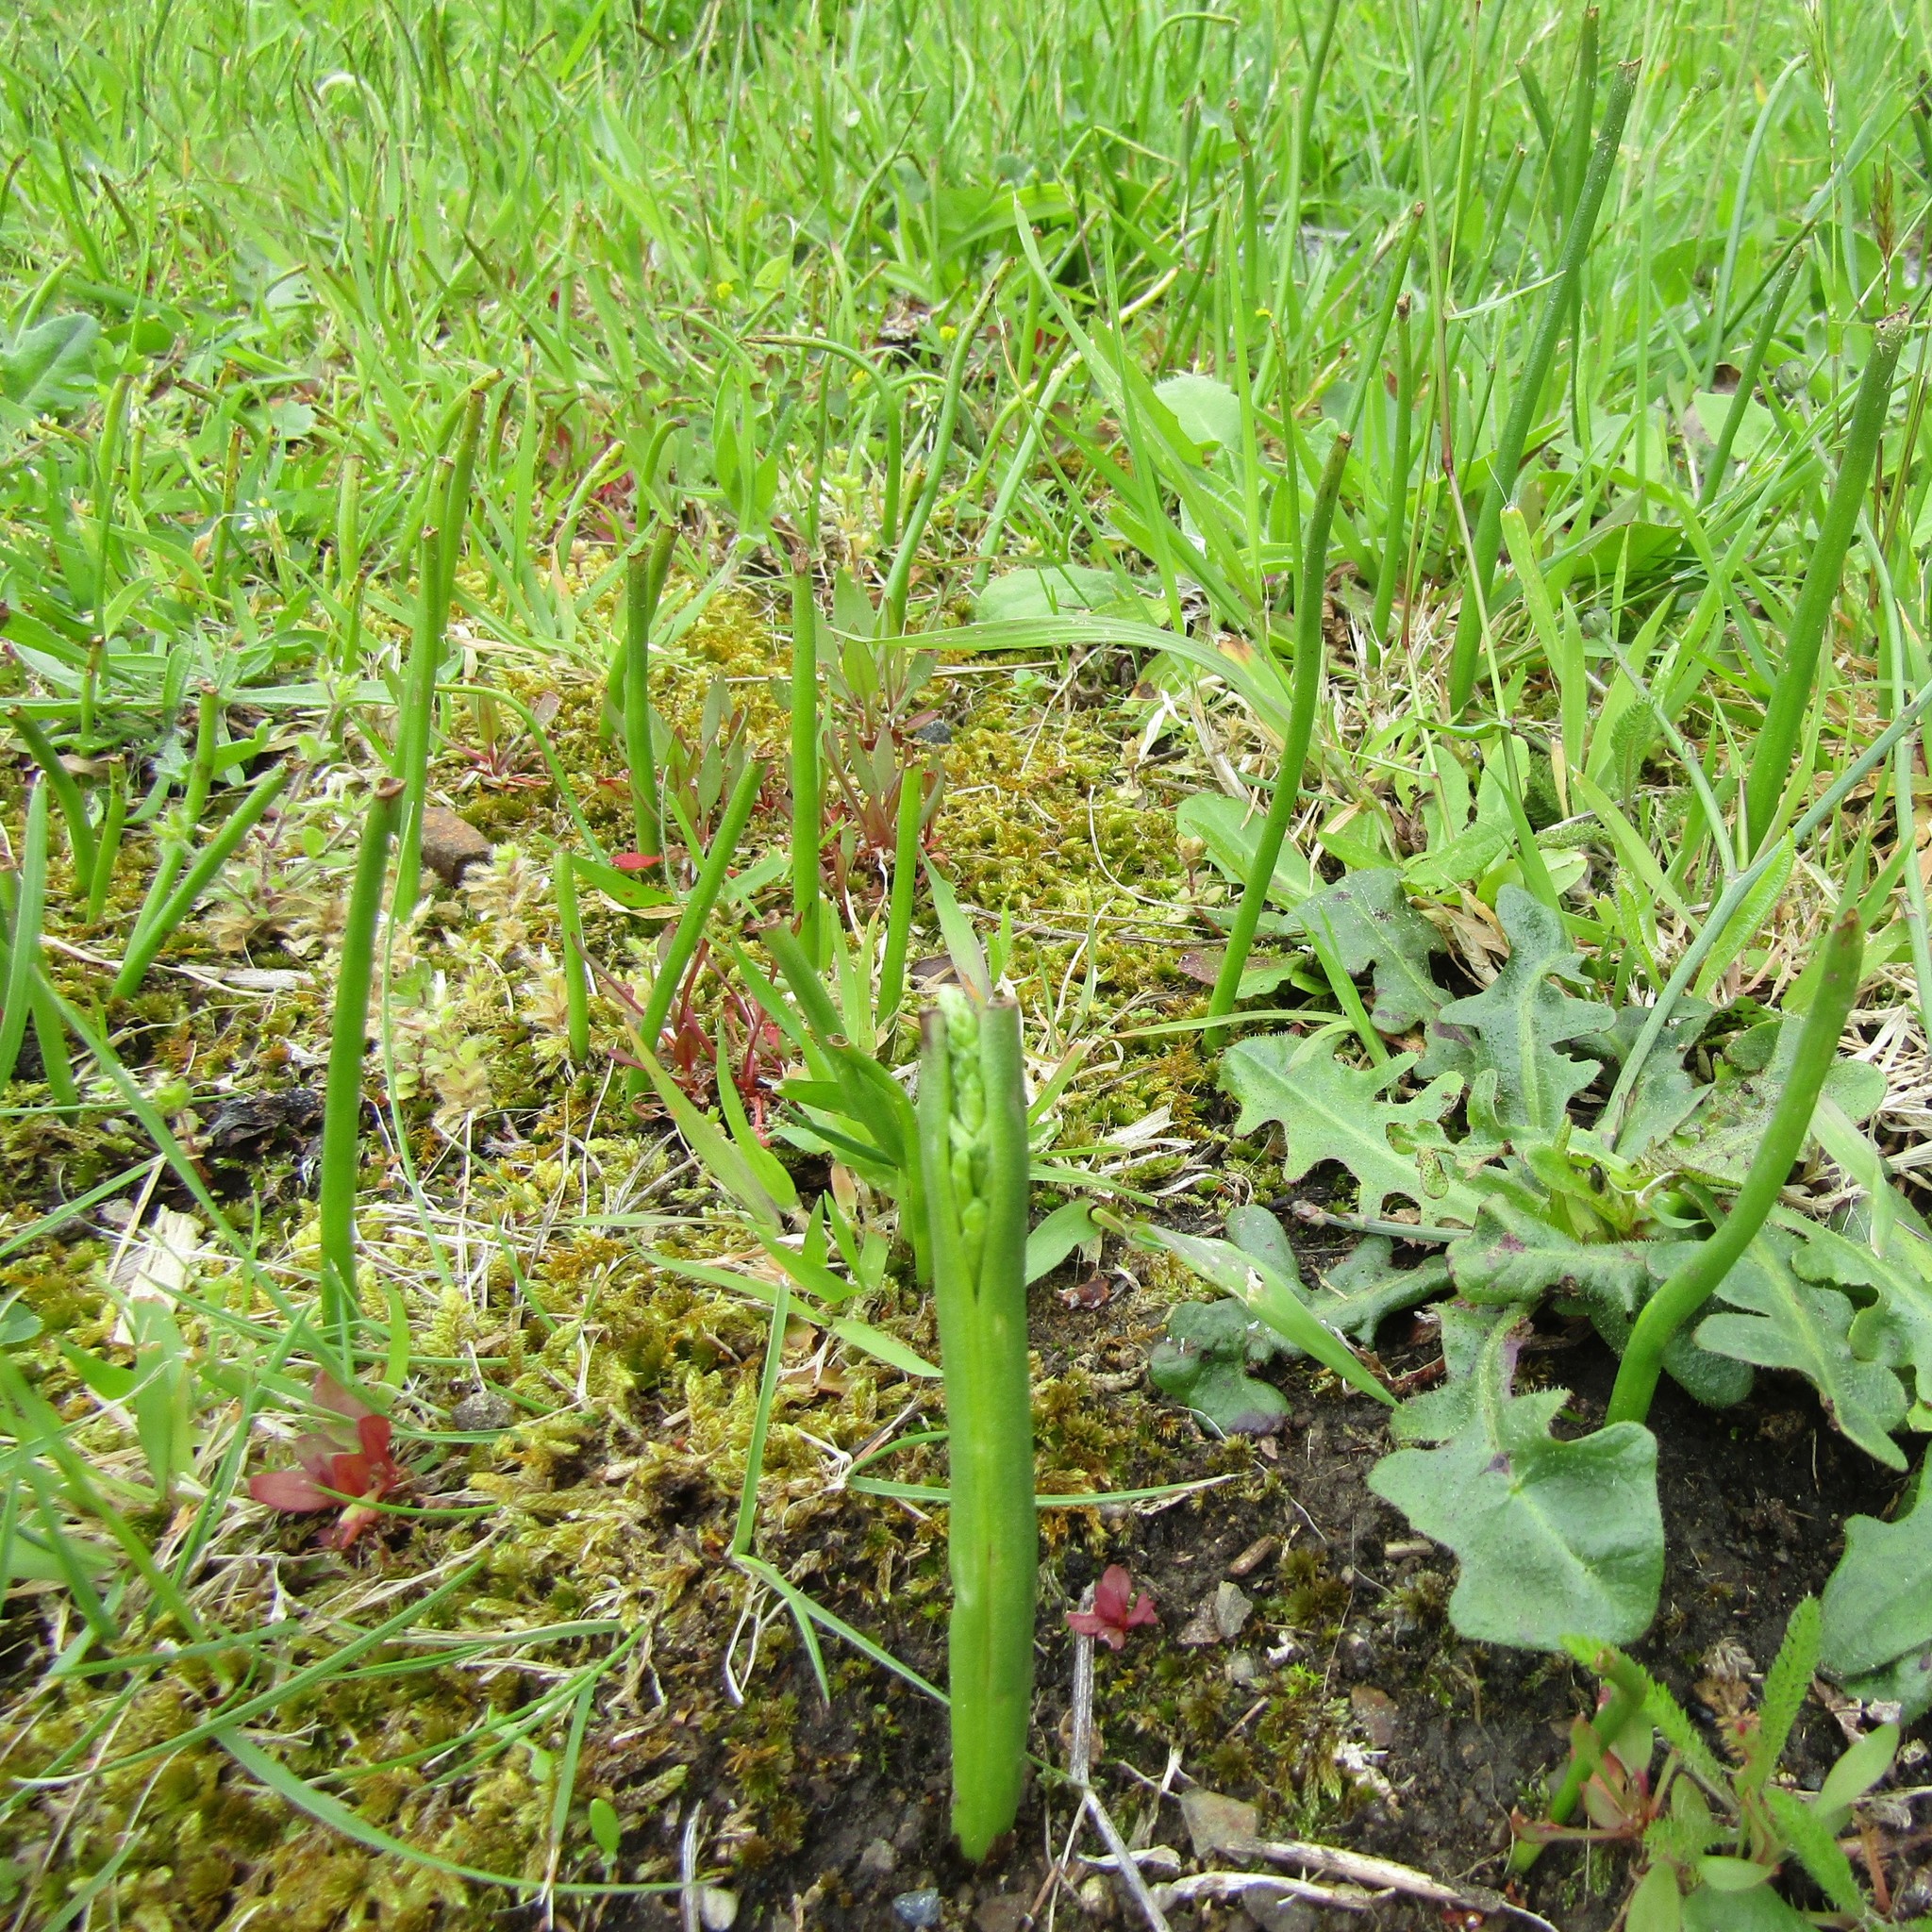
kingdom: Plantae
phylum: Tracheophyta
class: Liliopsida
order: Asparagales
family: Orchidaceae
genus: Microtis
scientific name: Microtis unifolia
